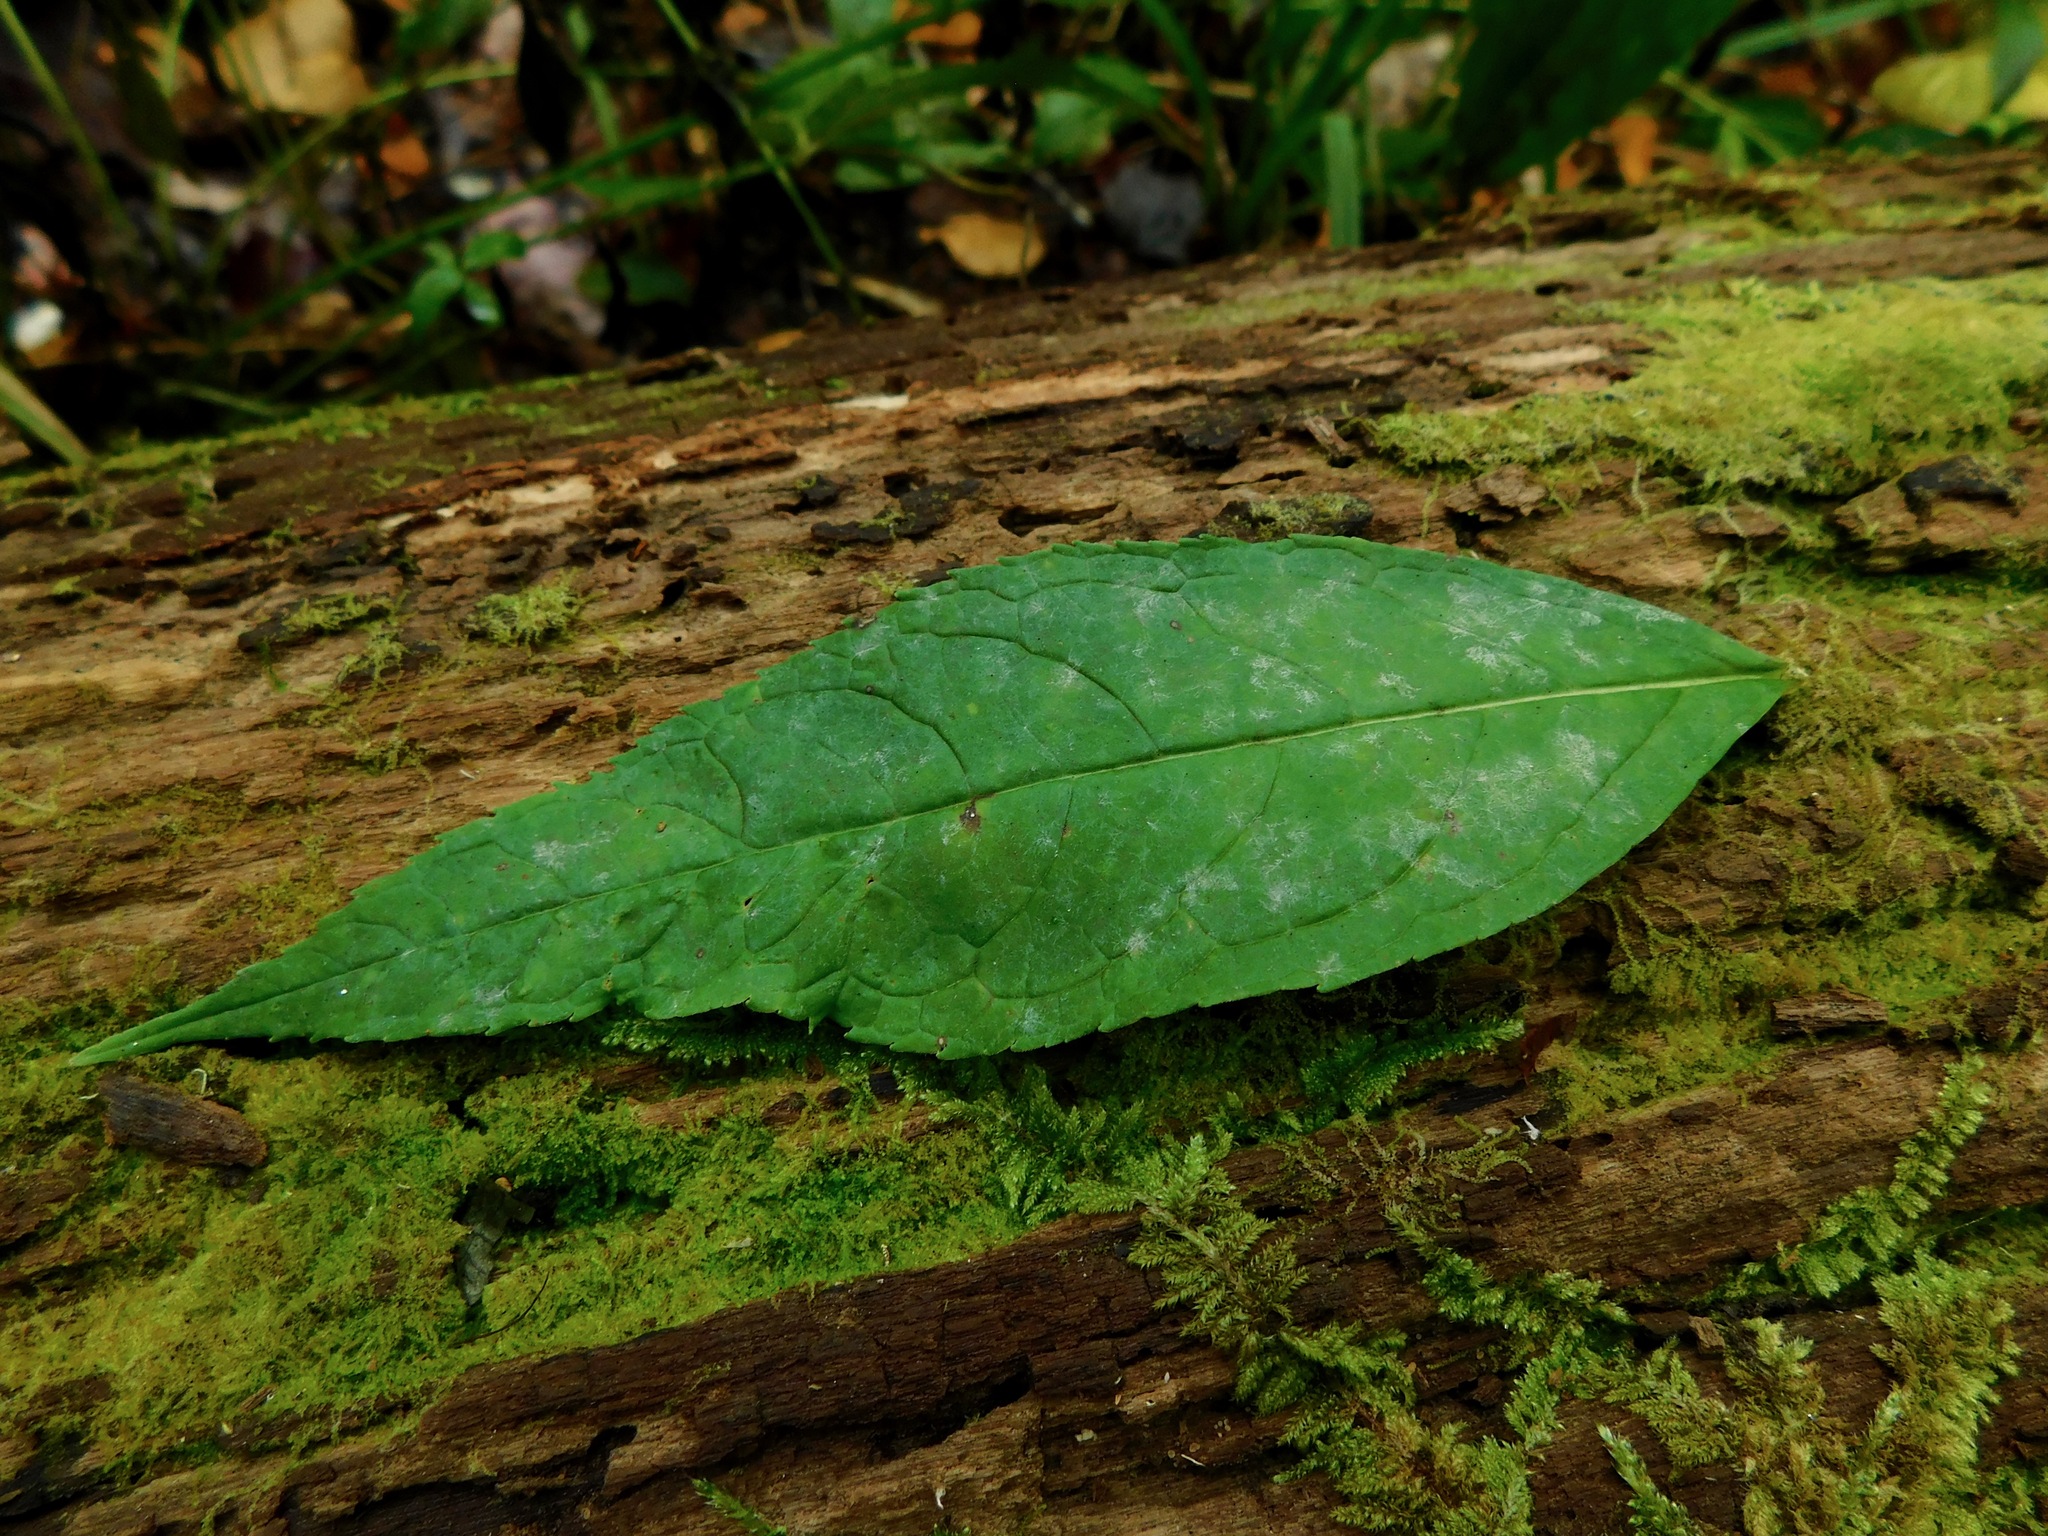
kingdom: Plantae
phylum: Tracheophyta
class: Magnoliopsida
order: Lamiales
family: Plantaginaceae
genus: Chelone
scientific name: Chelone glabra
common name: Snakehead
